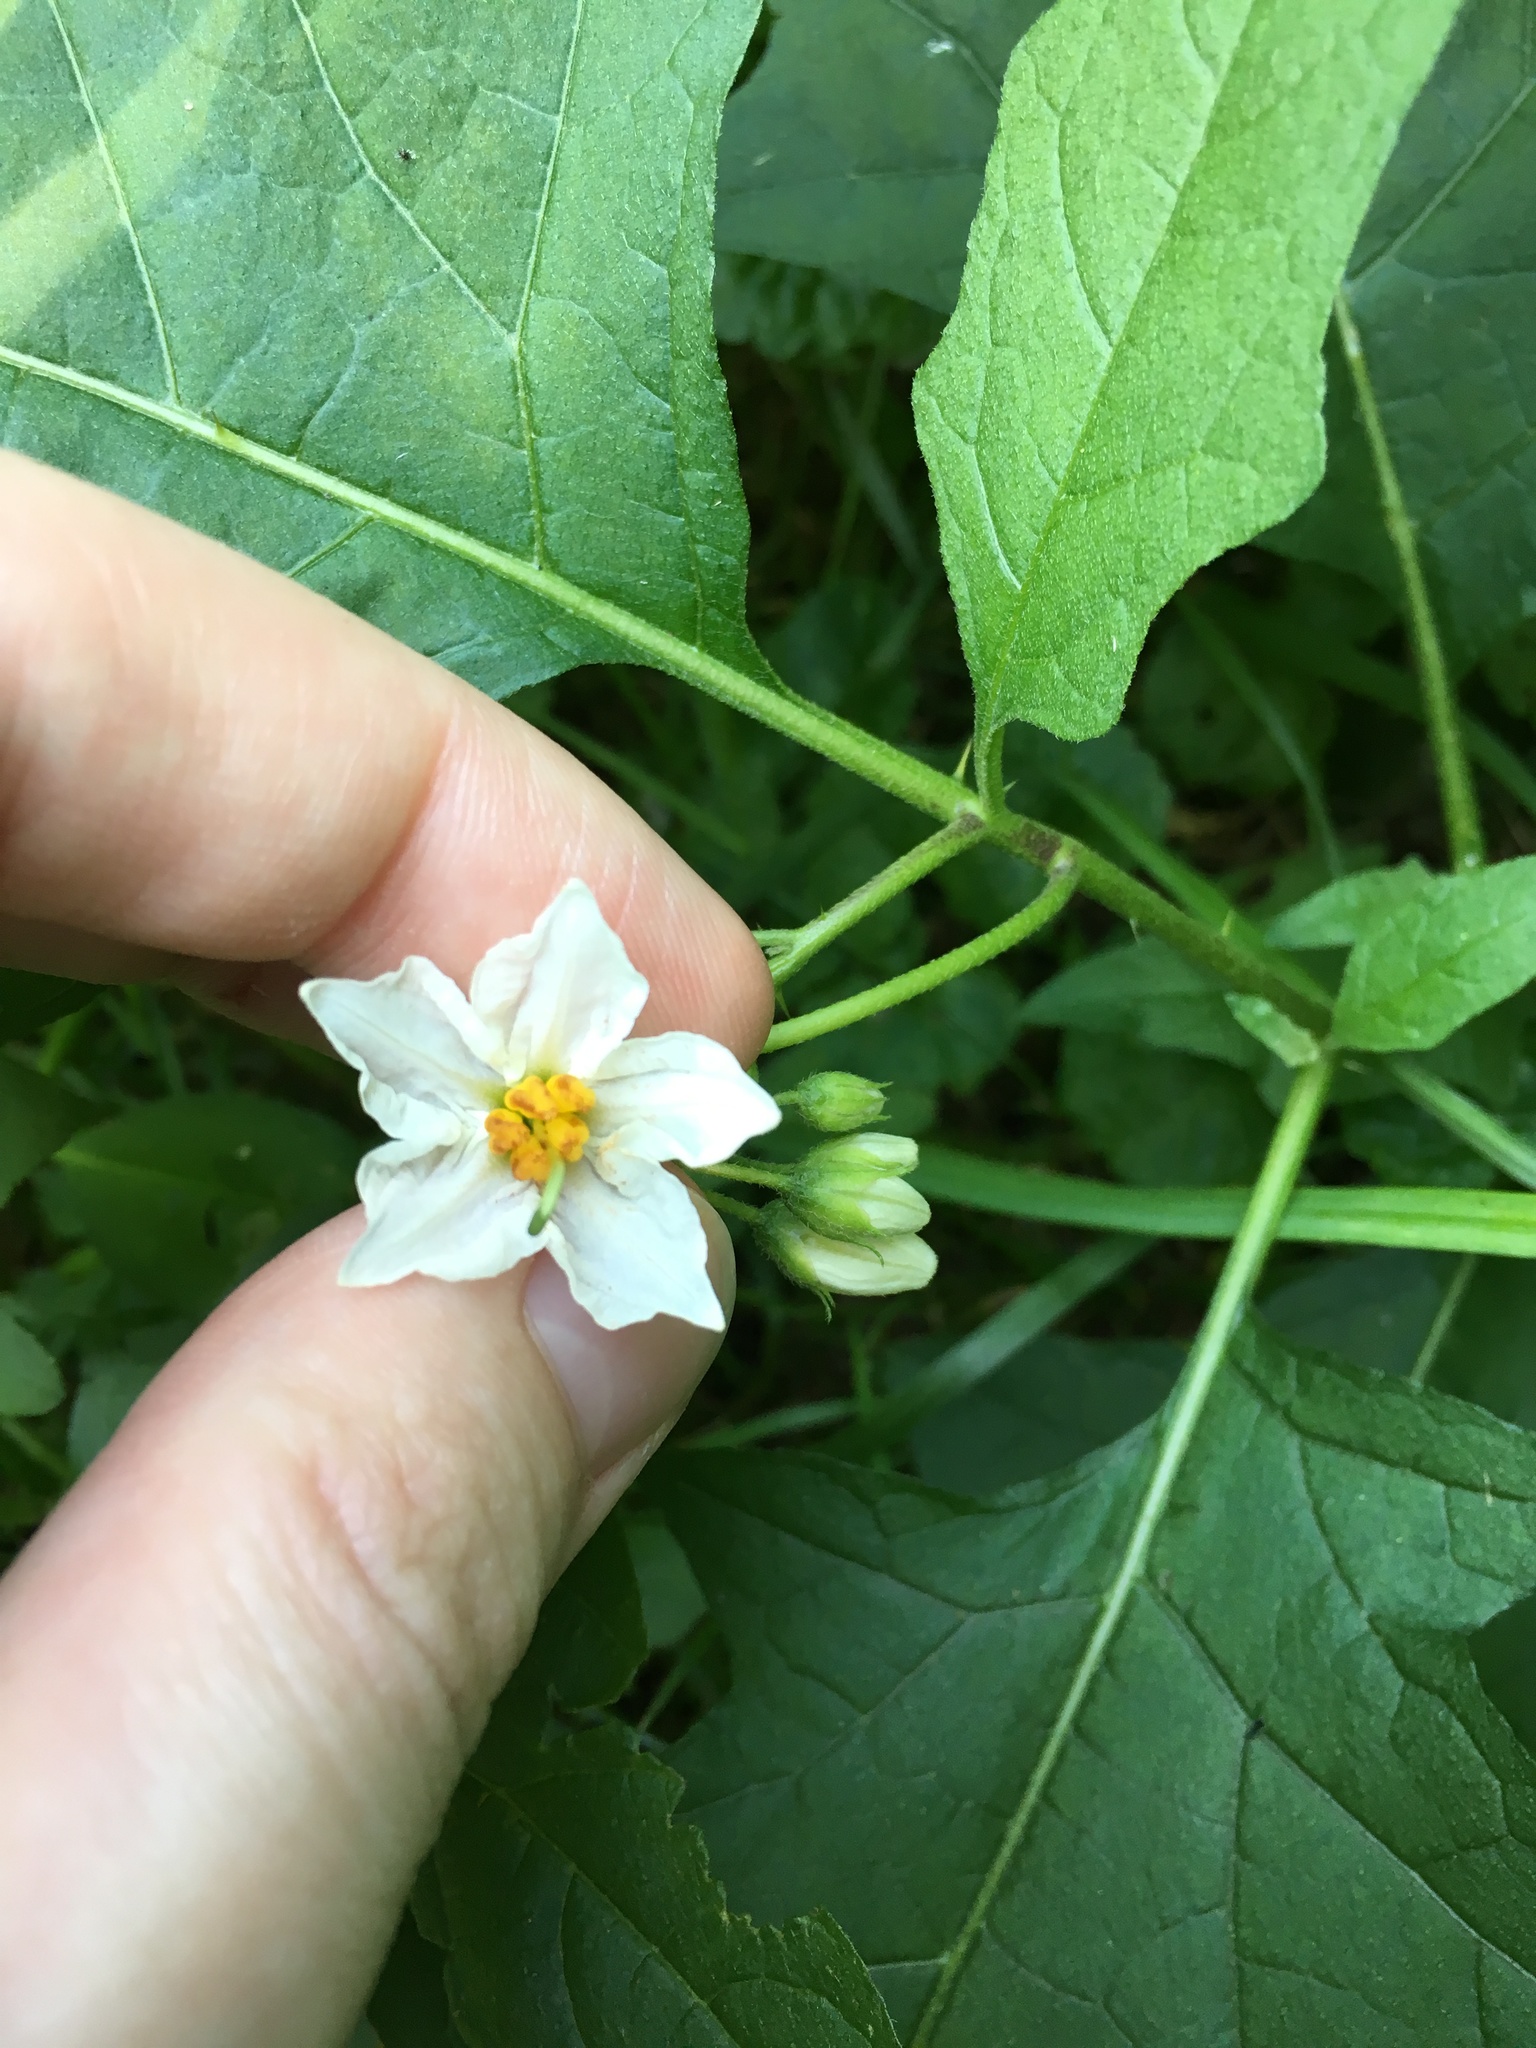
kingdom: Plantae
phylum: Tracheophyta
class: Magnoliopsida
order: Solanales
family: Solanaceae
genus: Solanum
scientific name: Solanum carolinense
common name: Horse-nettle
